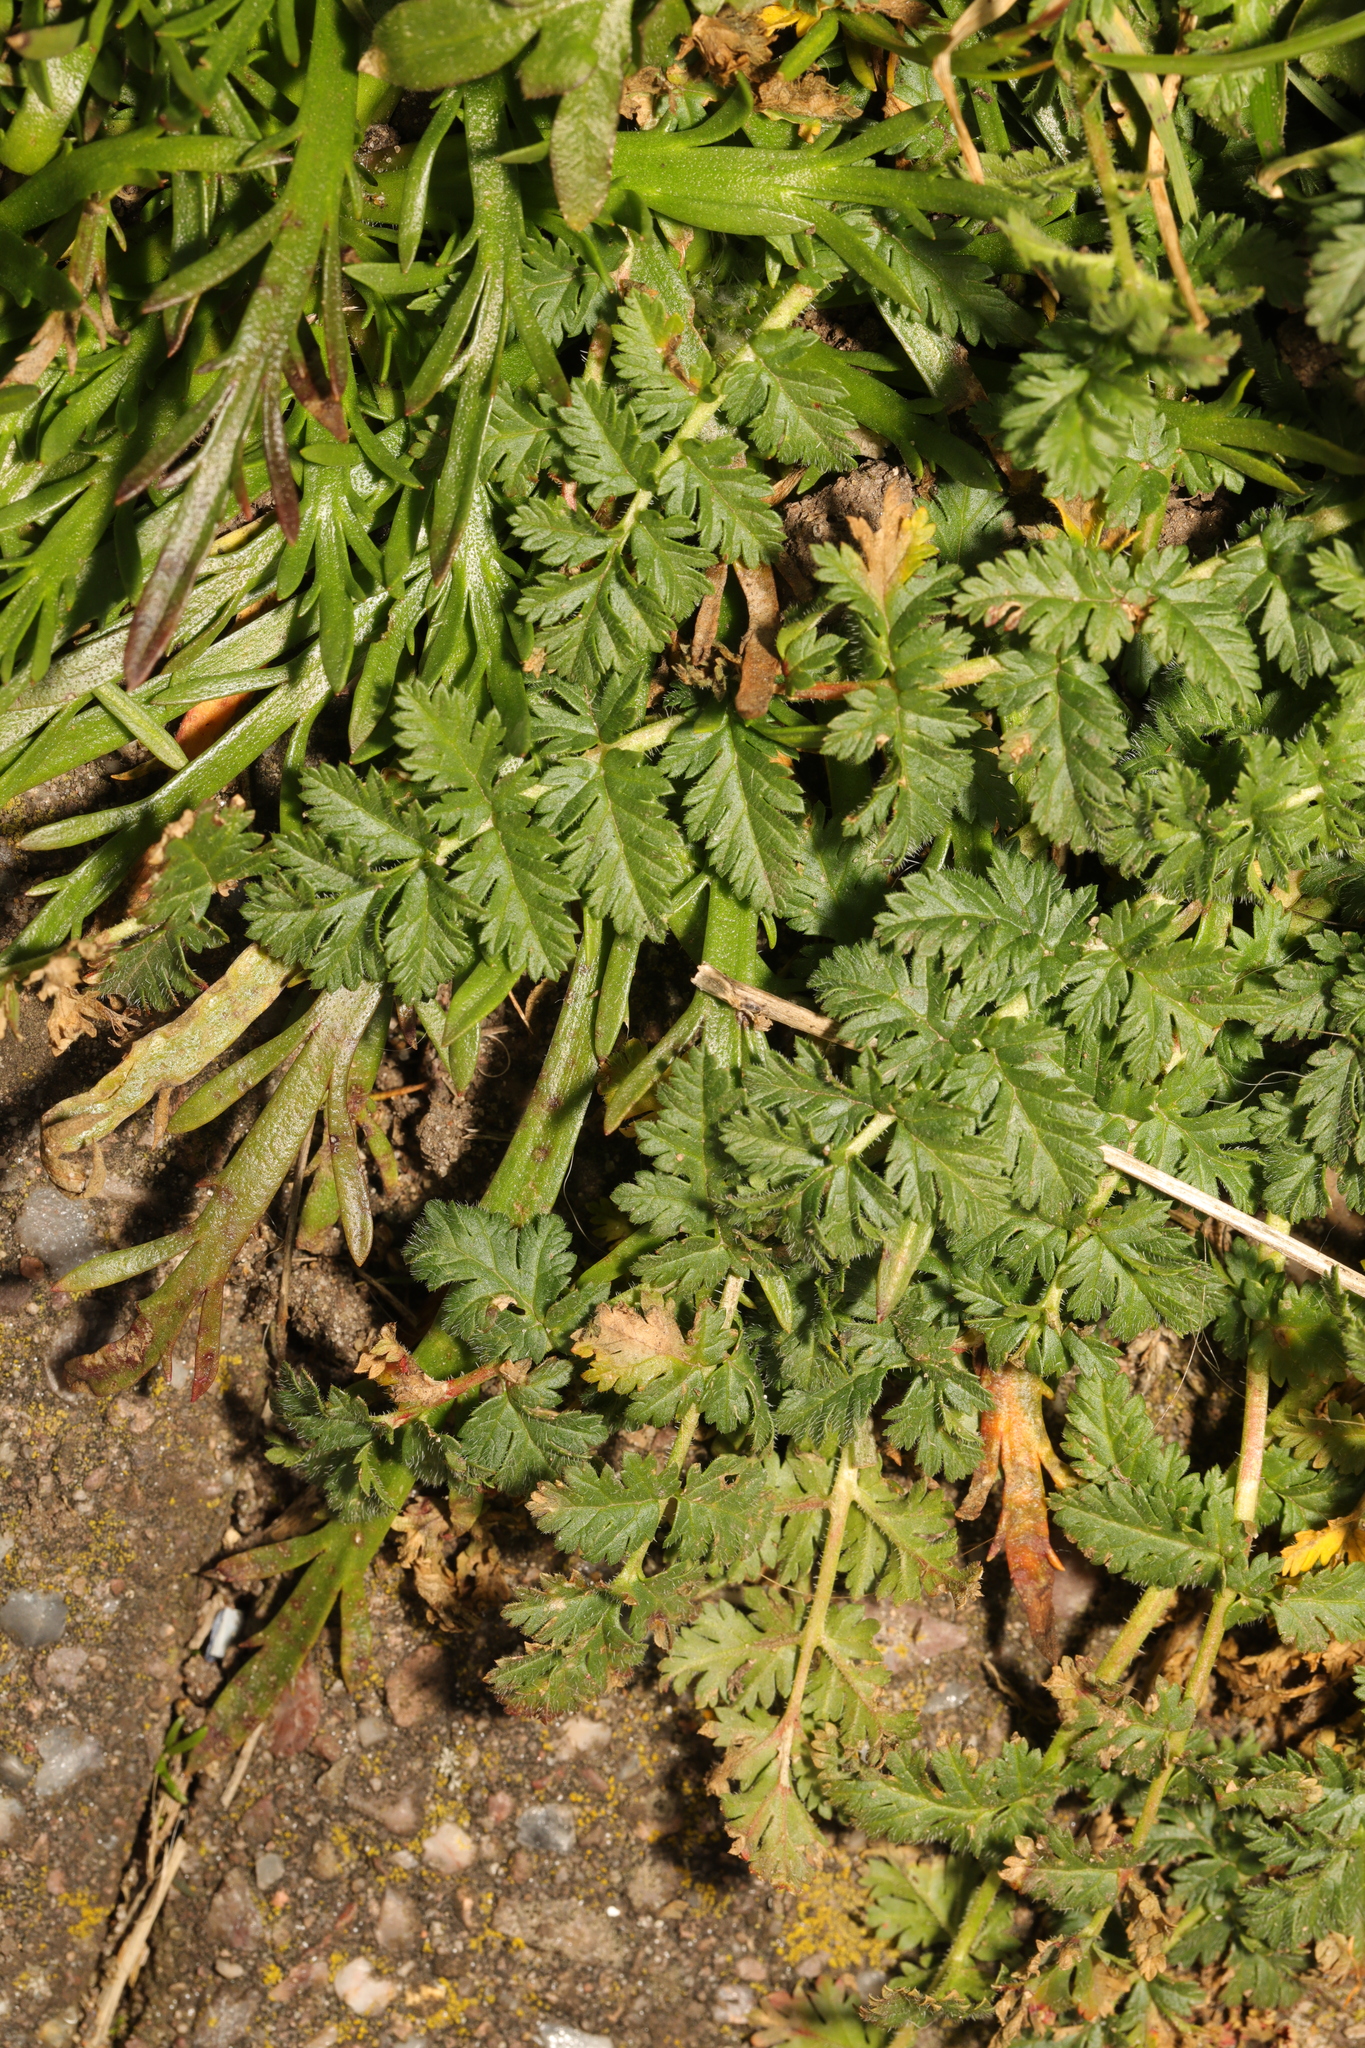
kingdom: Plantae
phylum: Tracheophyta
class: Magnoliopsida
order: Geraniales
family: Geraniaceae
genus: Erodium
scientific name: Erodium cicutarium
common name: Common stork's-bill
